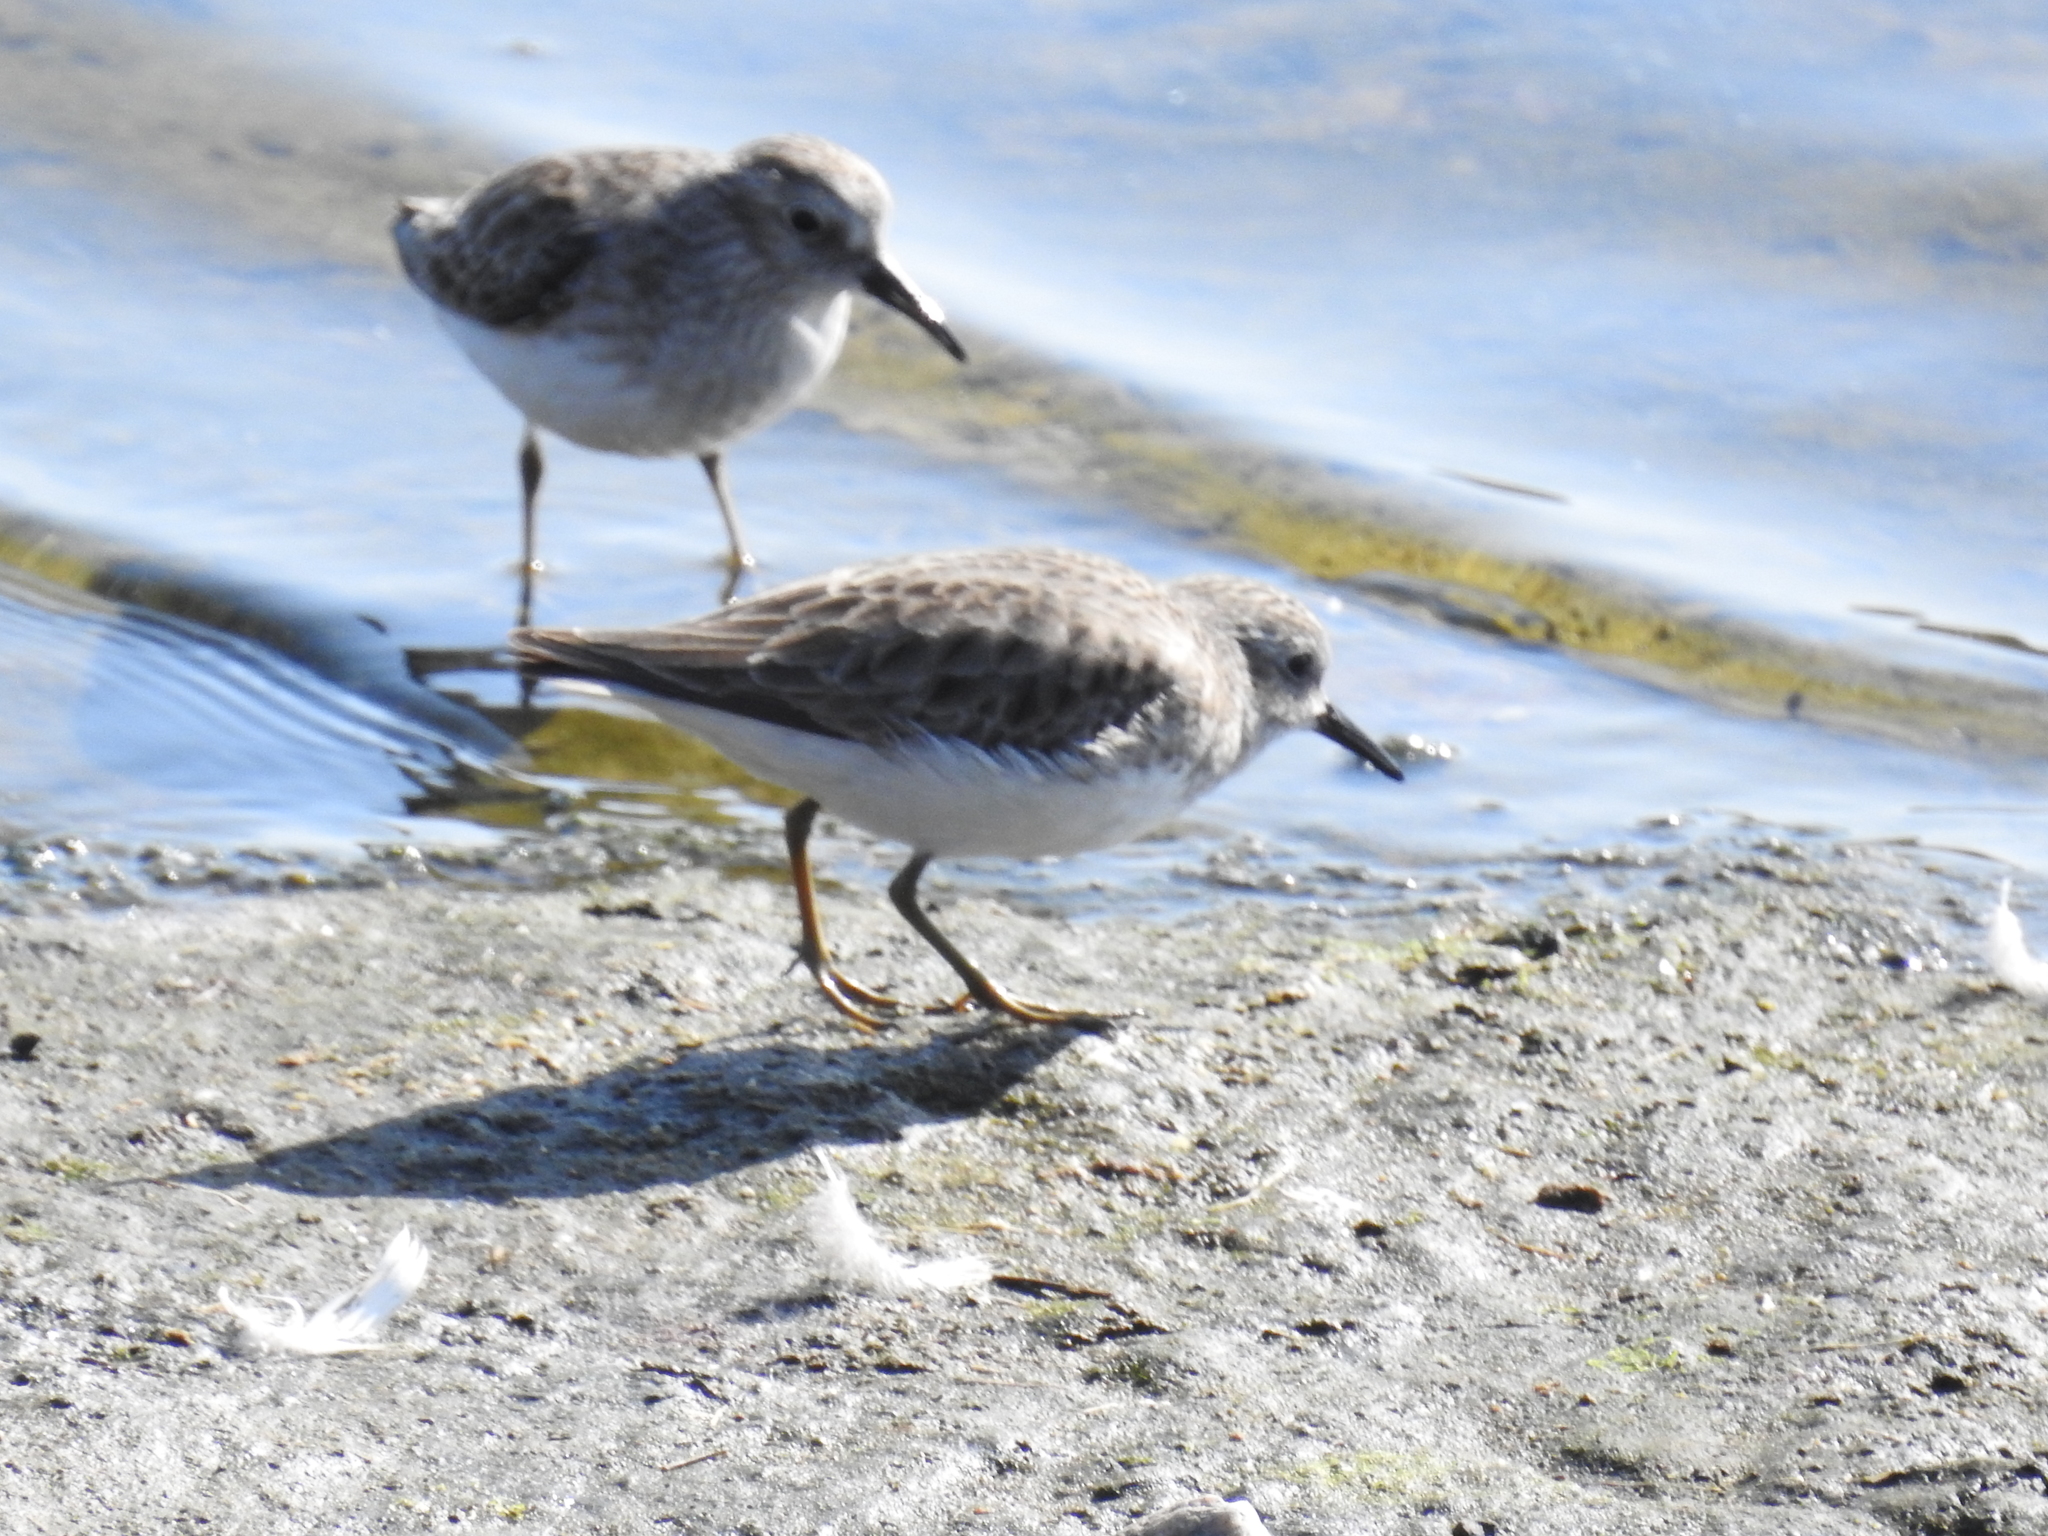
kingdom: Animalia
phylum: Chordata
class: Aves
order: Charadriiformes
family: Scolopacidae
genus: Calidris
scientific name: Calidris minutilla
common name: Least sandpiper
